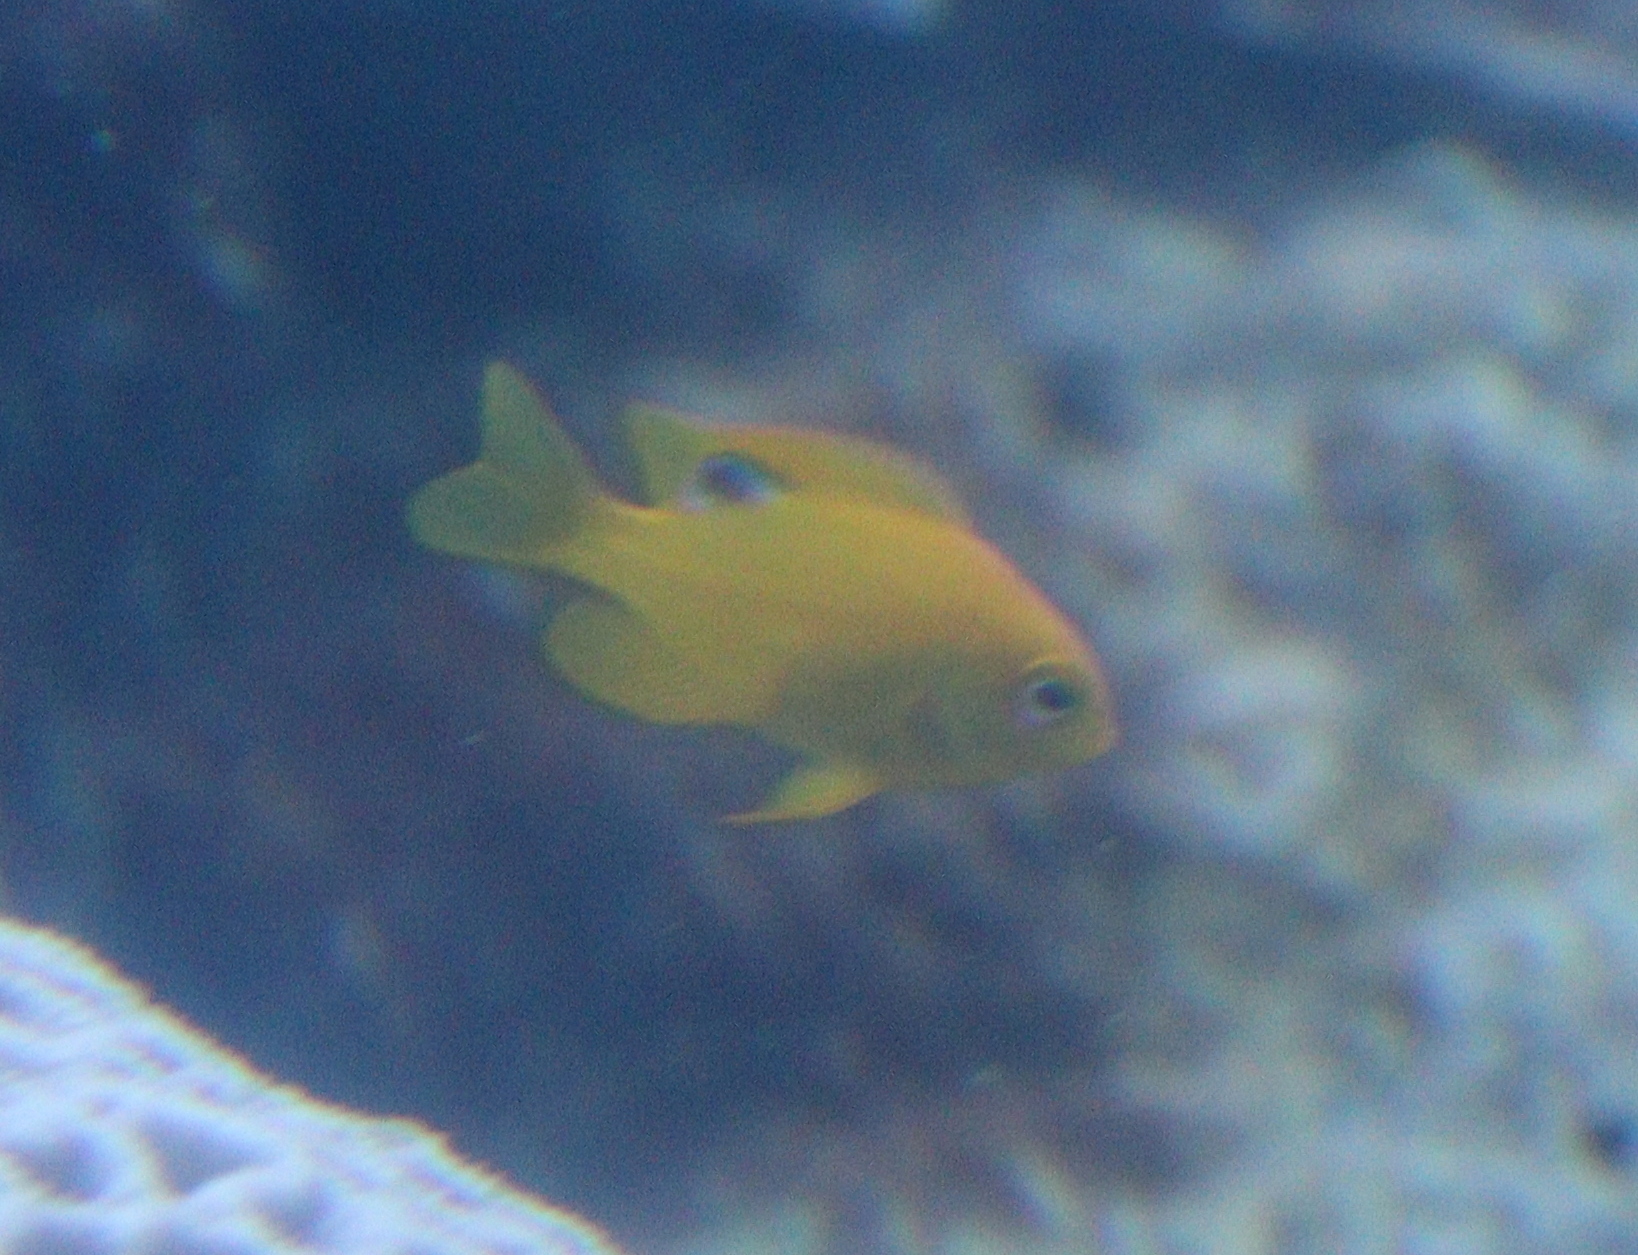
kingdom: Animalia
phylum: Chordata
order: Perciformes
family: Pomacentridae
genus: Pomacentrus
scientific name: Pomacentrus sulfureus
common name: Sulfur damsel
